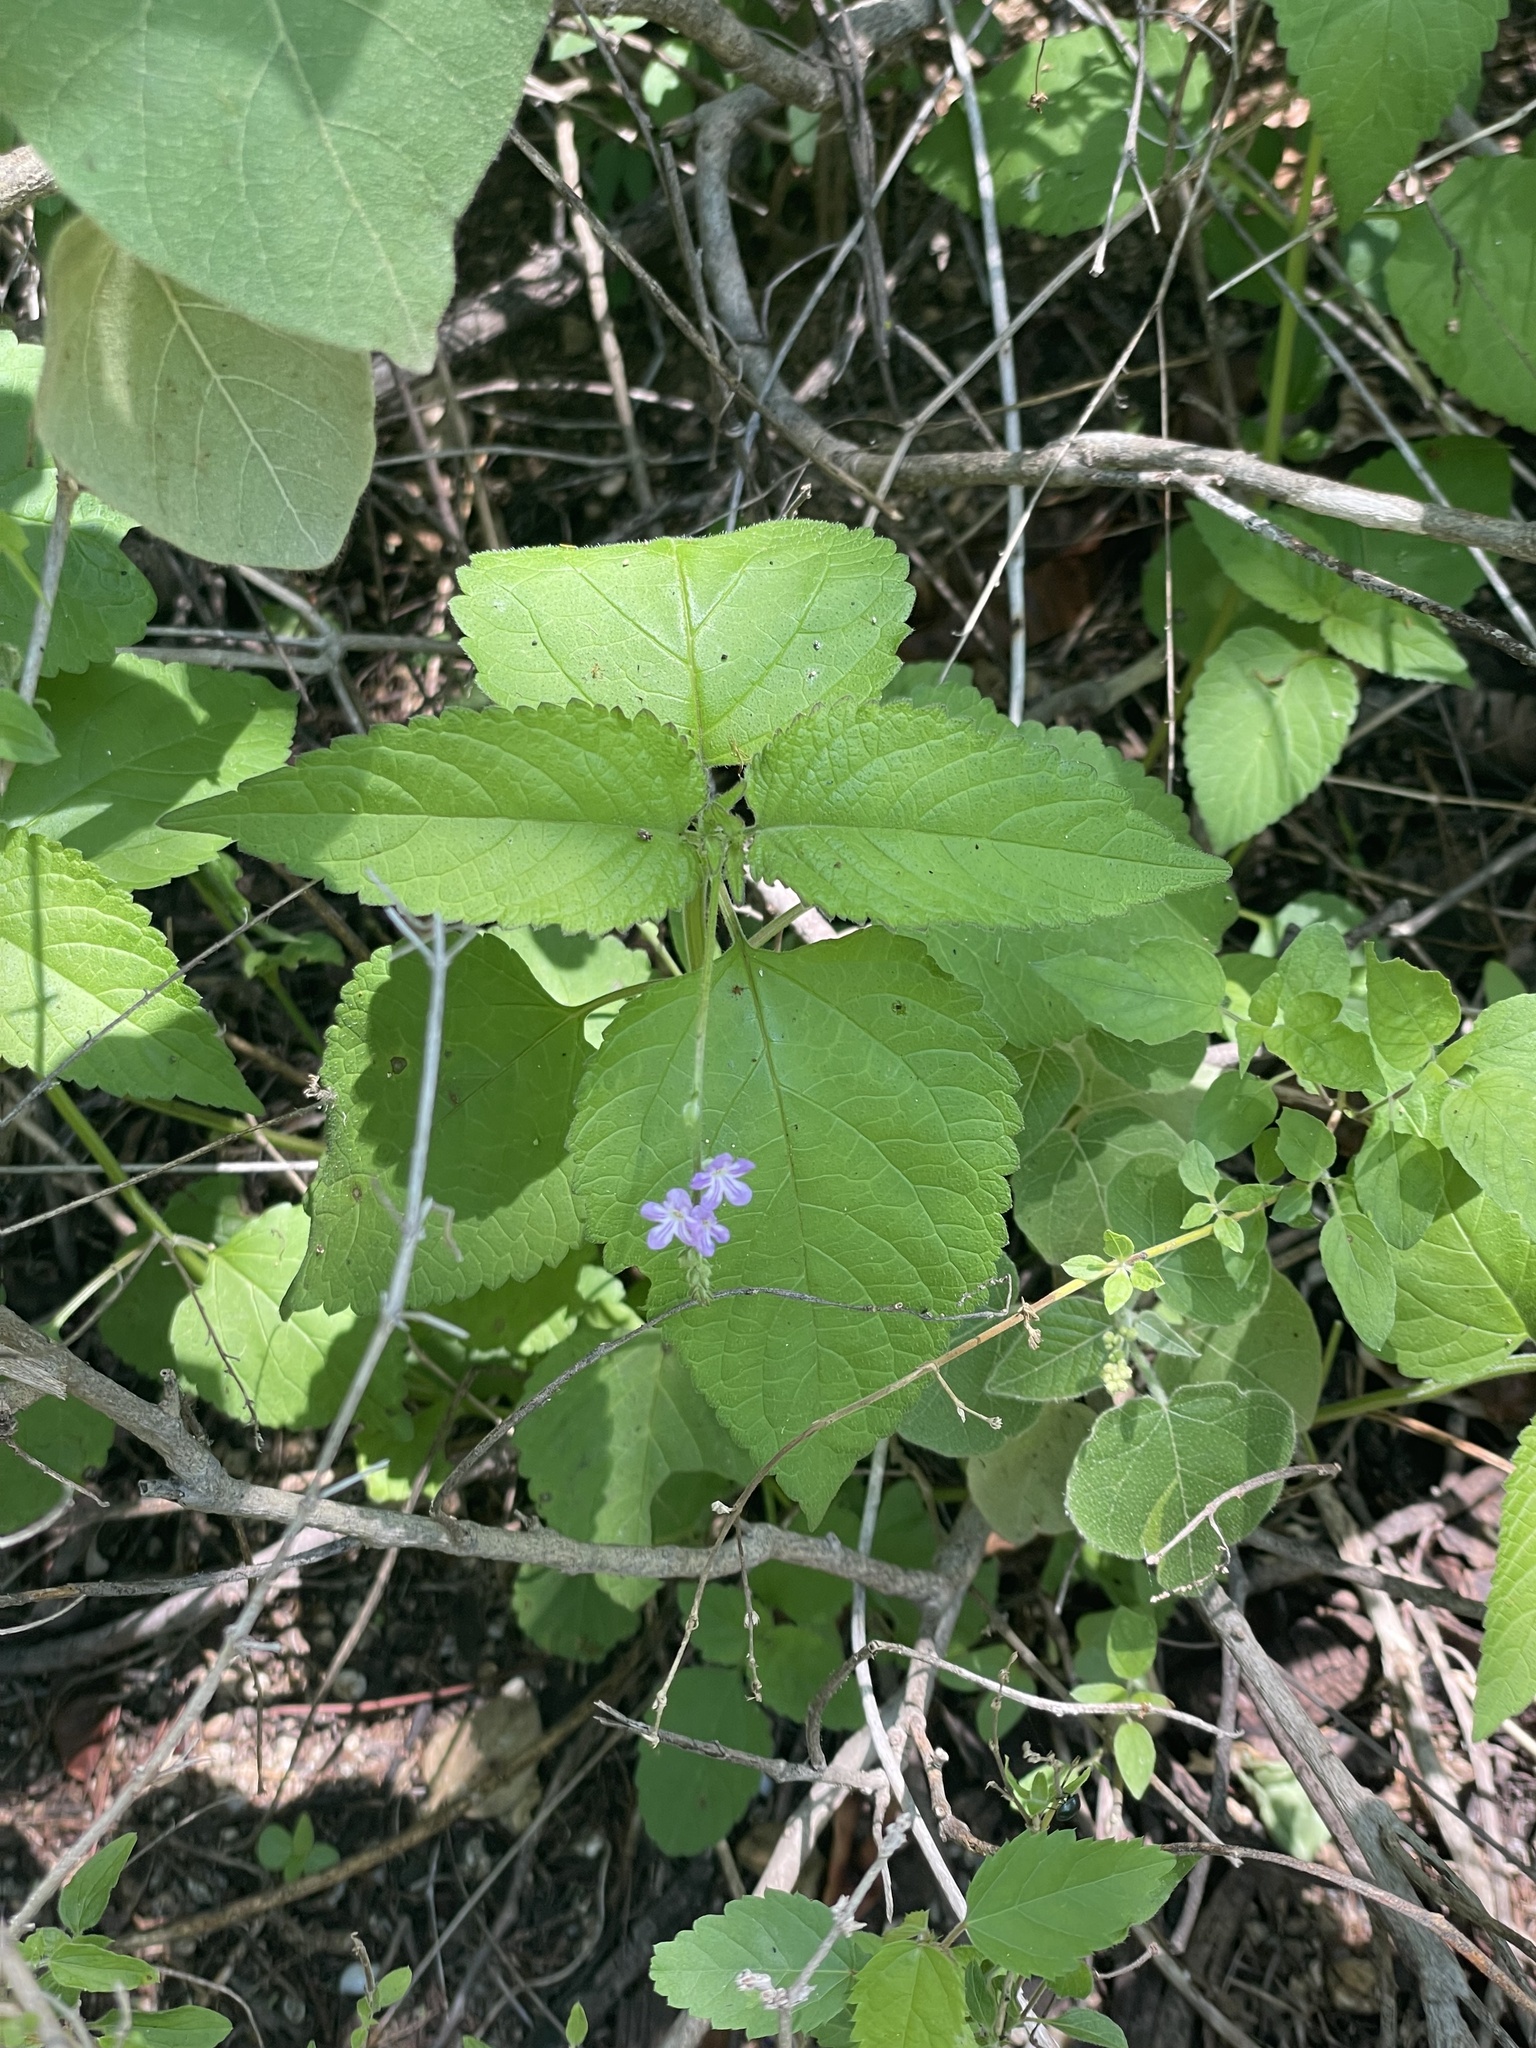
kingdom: Plantae
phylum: Tracheophyta
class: Magnoliopsida
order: Lamiales
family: Verbenaceae
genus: Priva
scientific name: Priva lappulacea
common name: Fasten-'pon-coat
